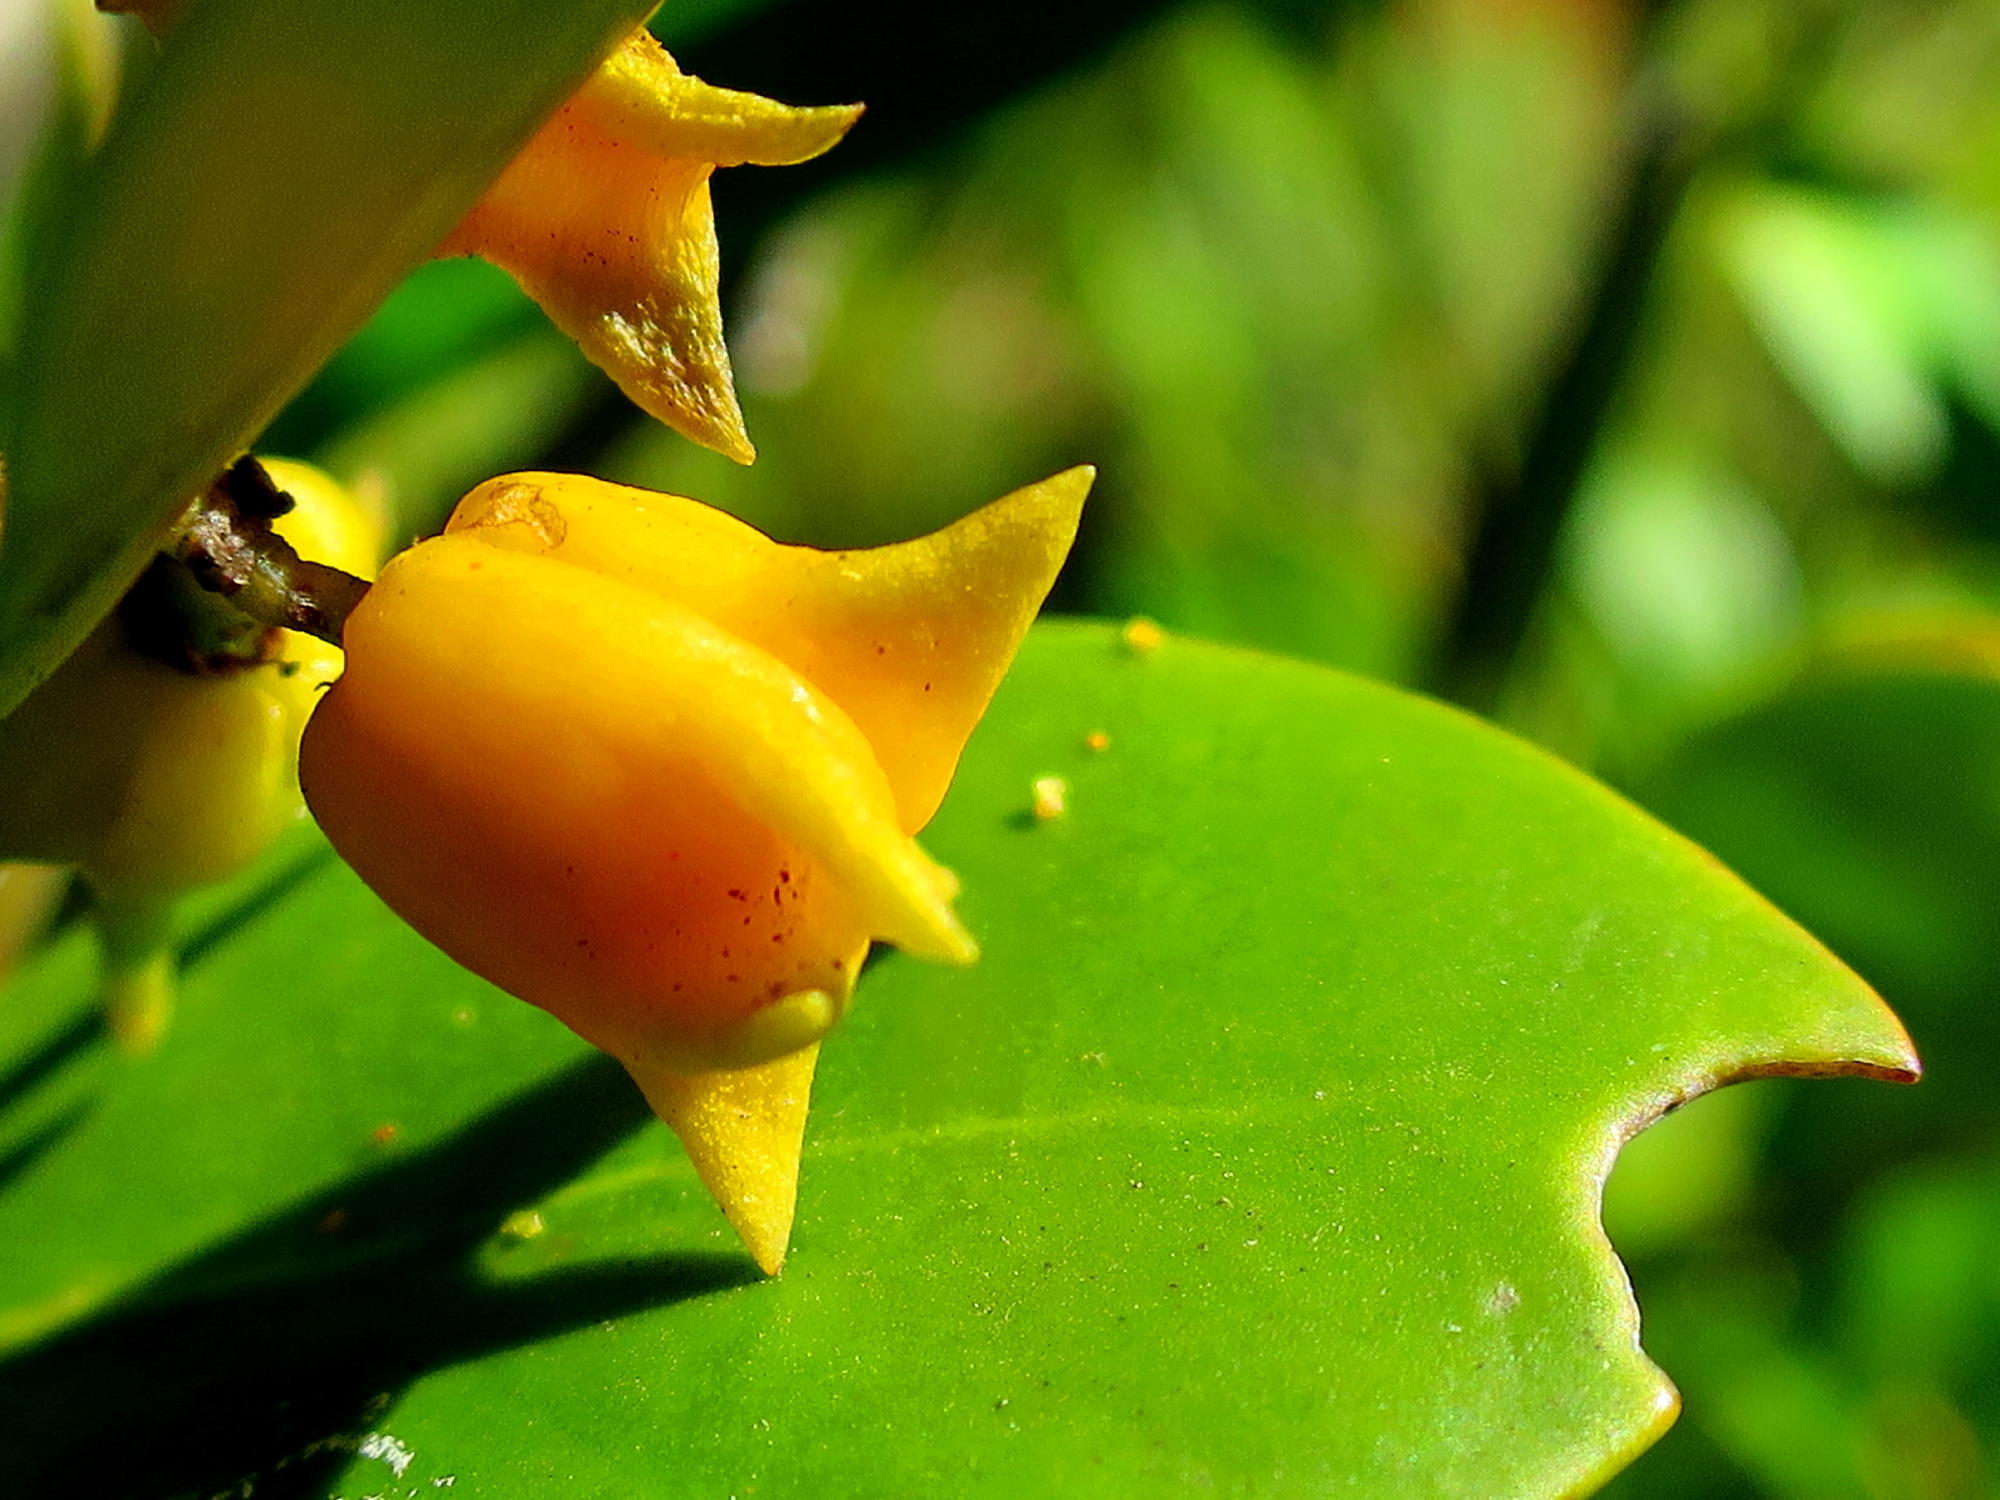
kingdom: Plantae
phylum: Tracheophyta
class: Magnoliopsida
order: Celastrales
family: Celastraceae
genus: Pterocelastrus
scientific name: Pterocelastrus tricuspidatus
